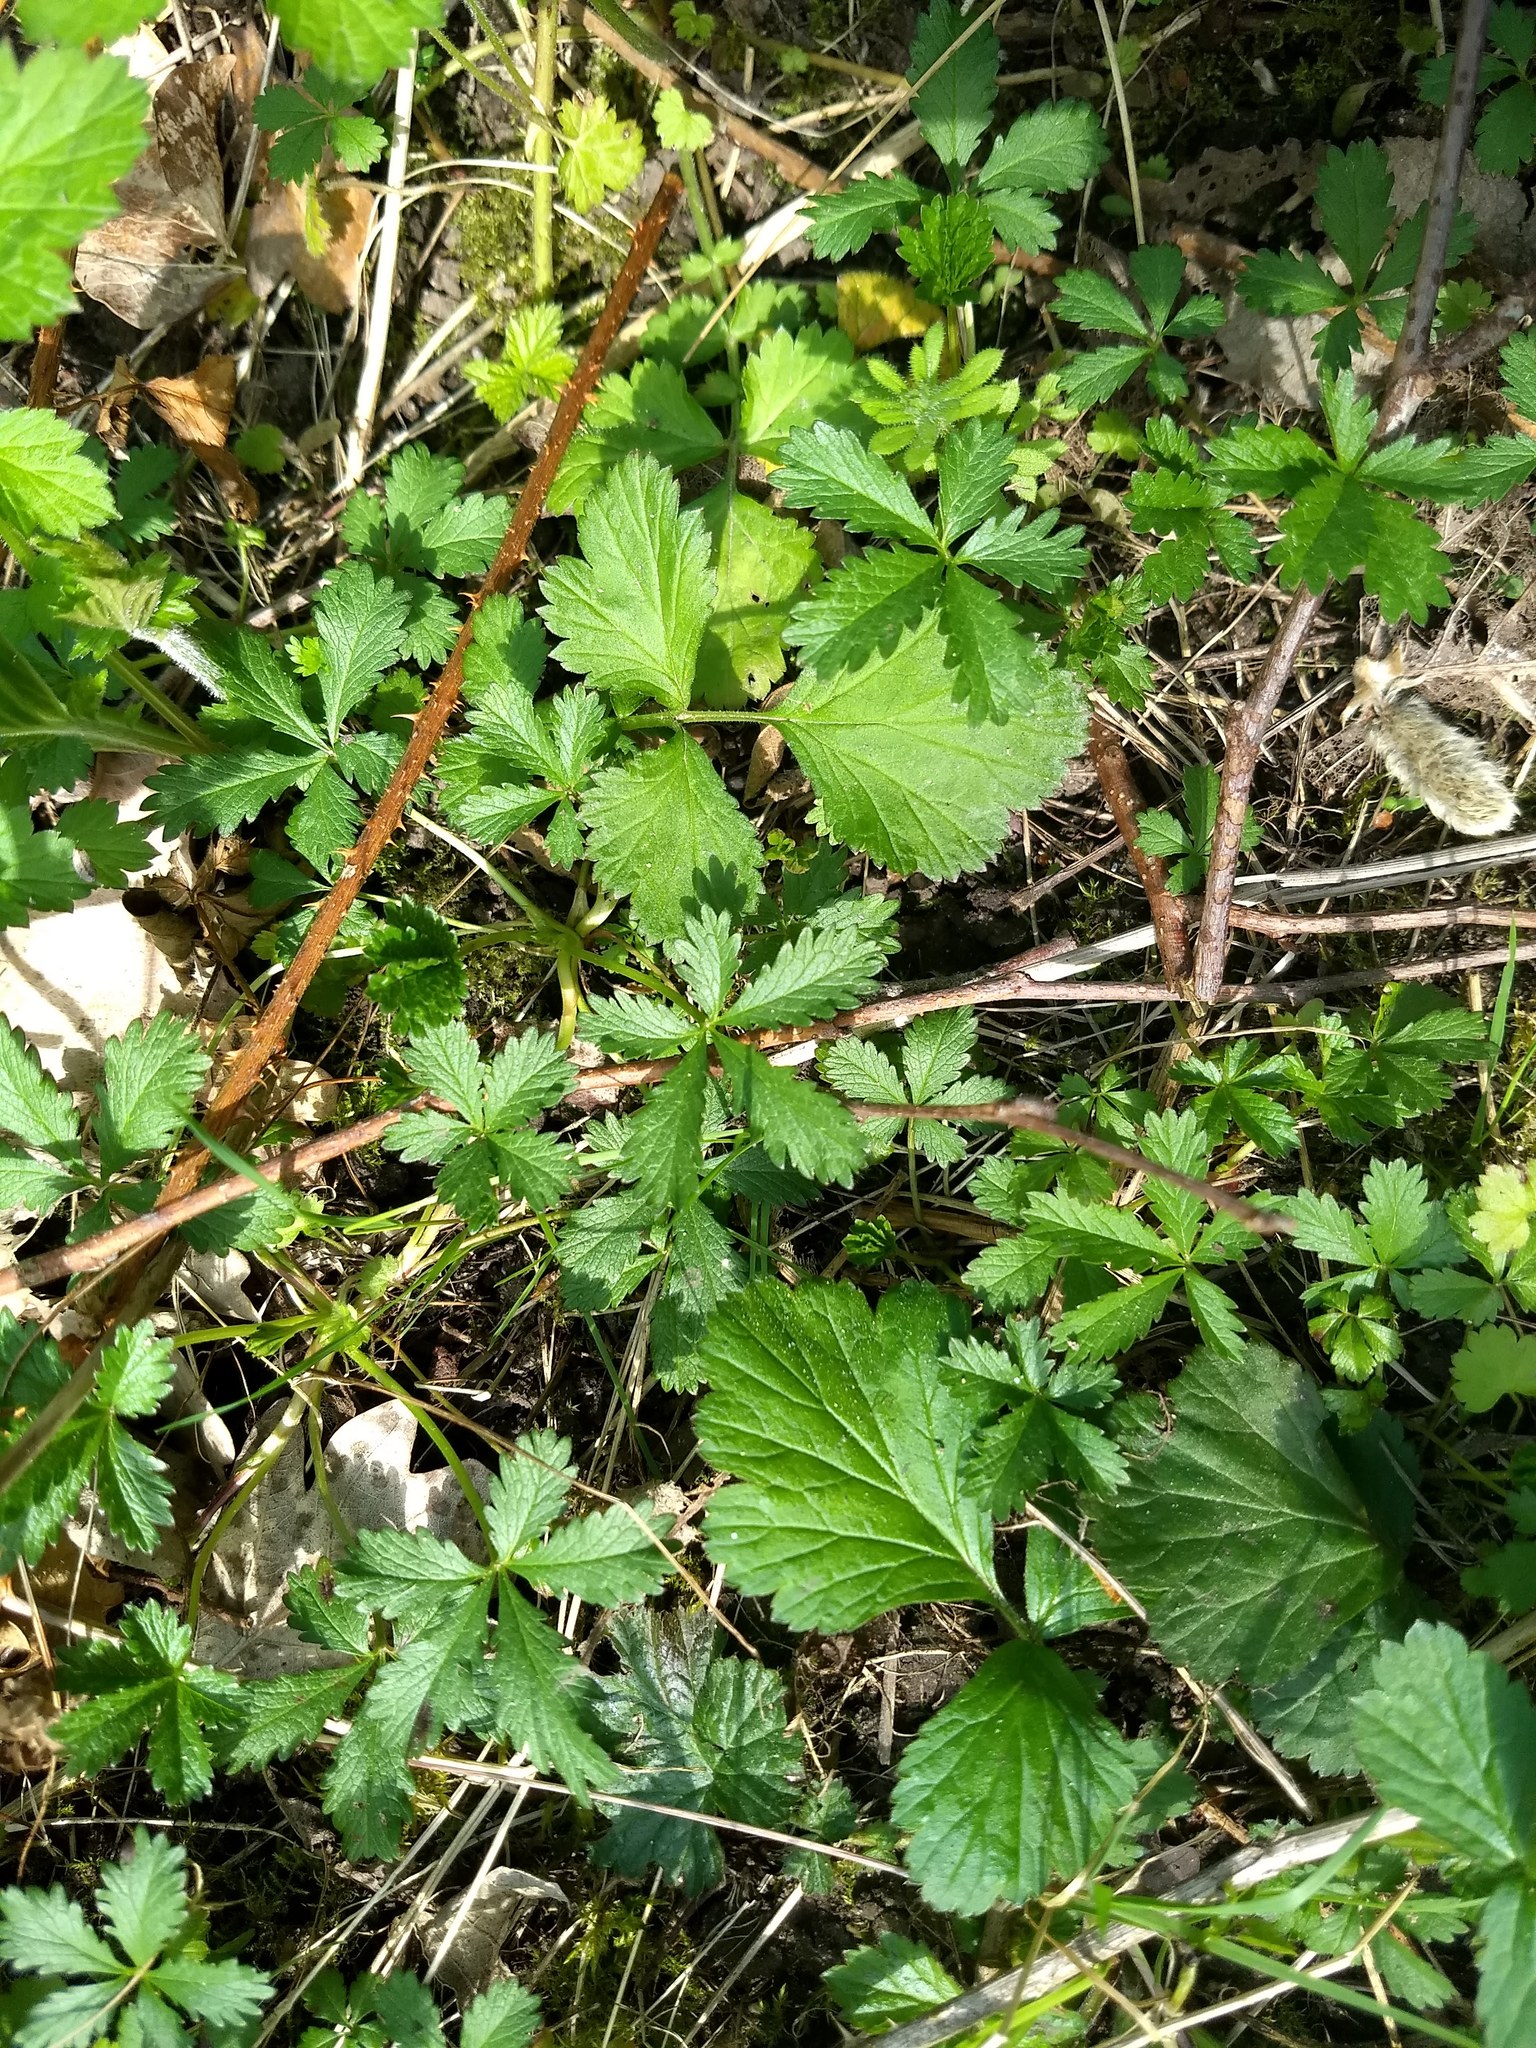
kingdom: Plantae
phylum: Tracheophyta
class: Magnoliopsida
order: Rosales
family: Rosaceae
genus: Potentilla
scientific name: Potentilla reptans
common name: Creeping cinquefoil
